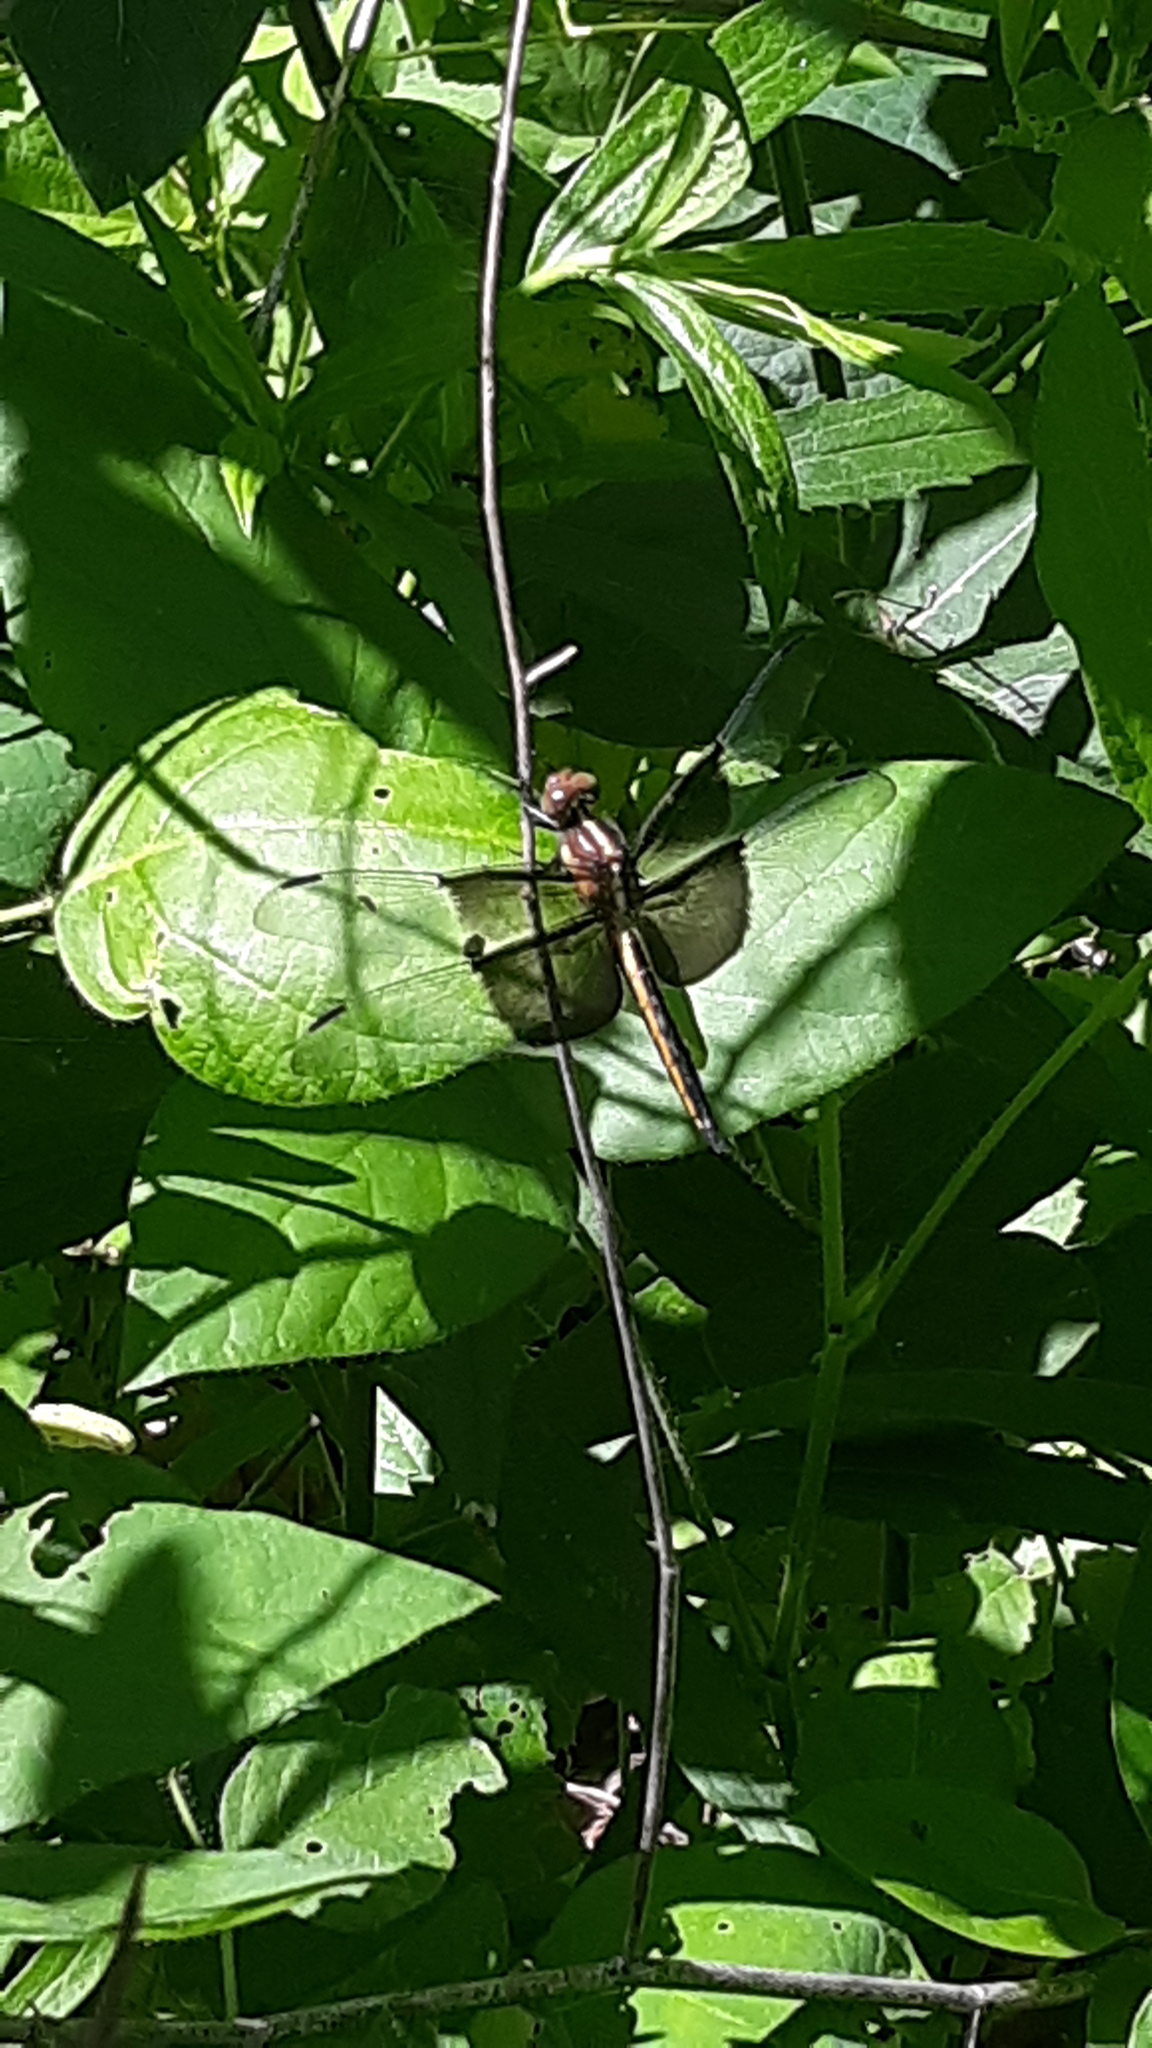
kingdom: Animalia
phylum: Arthropoda
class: Insecta
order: Odonata
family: Libellulidae
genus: Libellula
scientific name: Libellula luctuosa
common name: Widow skimmer
